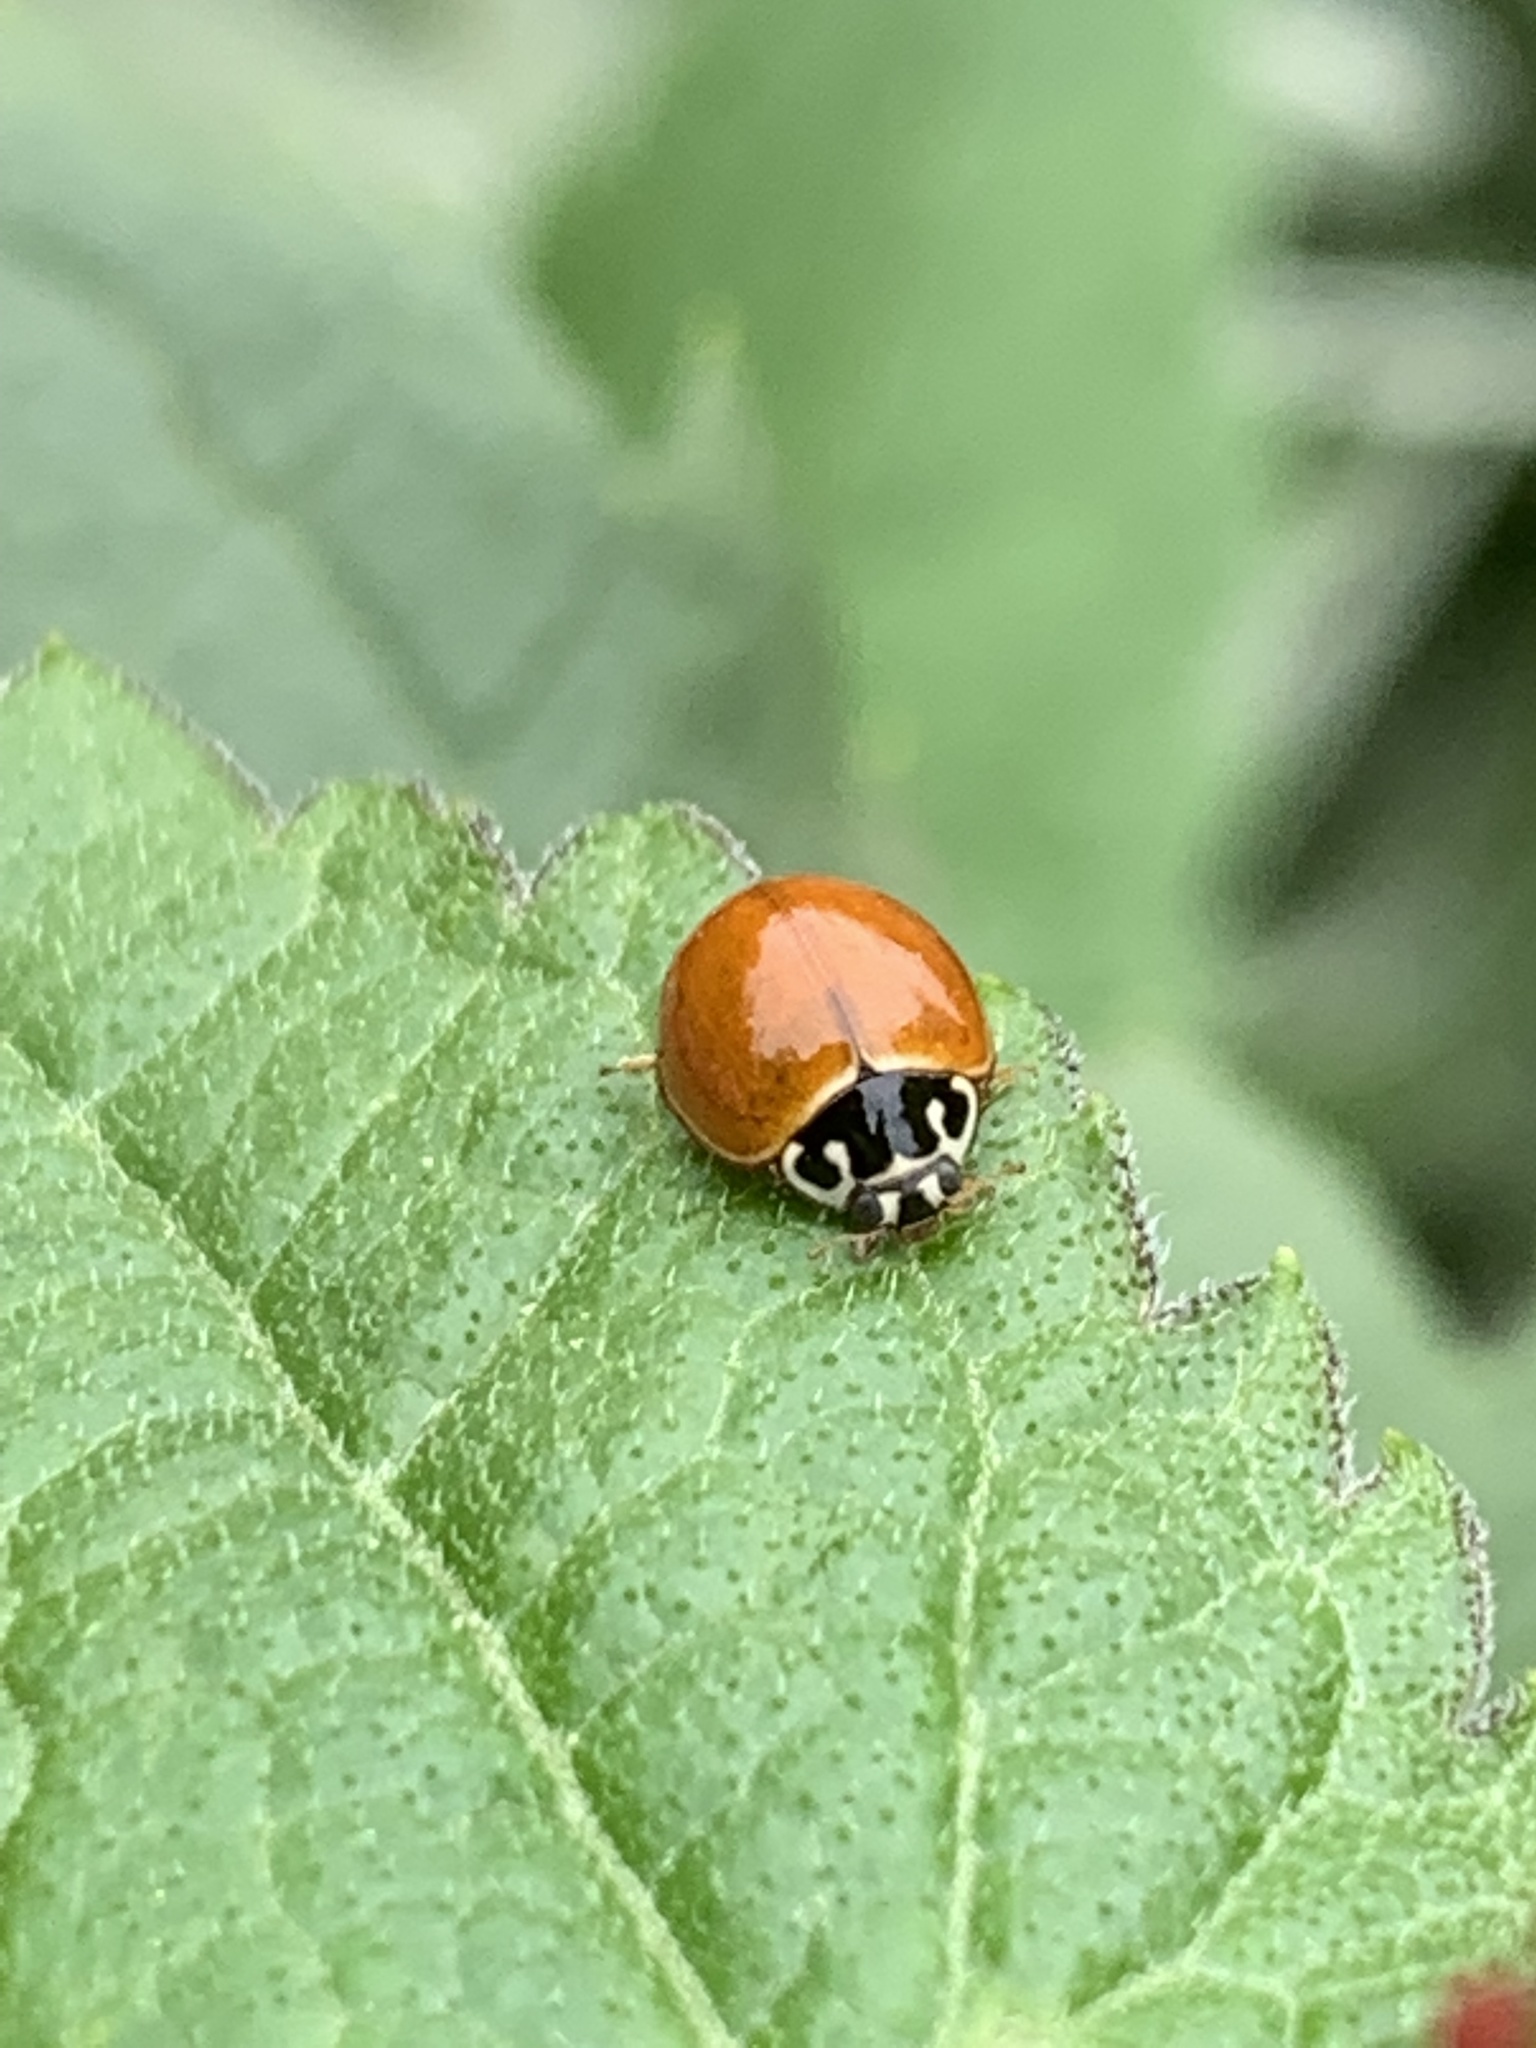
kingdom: Animalia
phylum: Arthropoda
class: Insecta
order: Coleoptera
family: Coccinellidae
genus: Cycloneda
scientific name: Cycloneda munda
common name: Polished lady beetle
